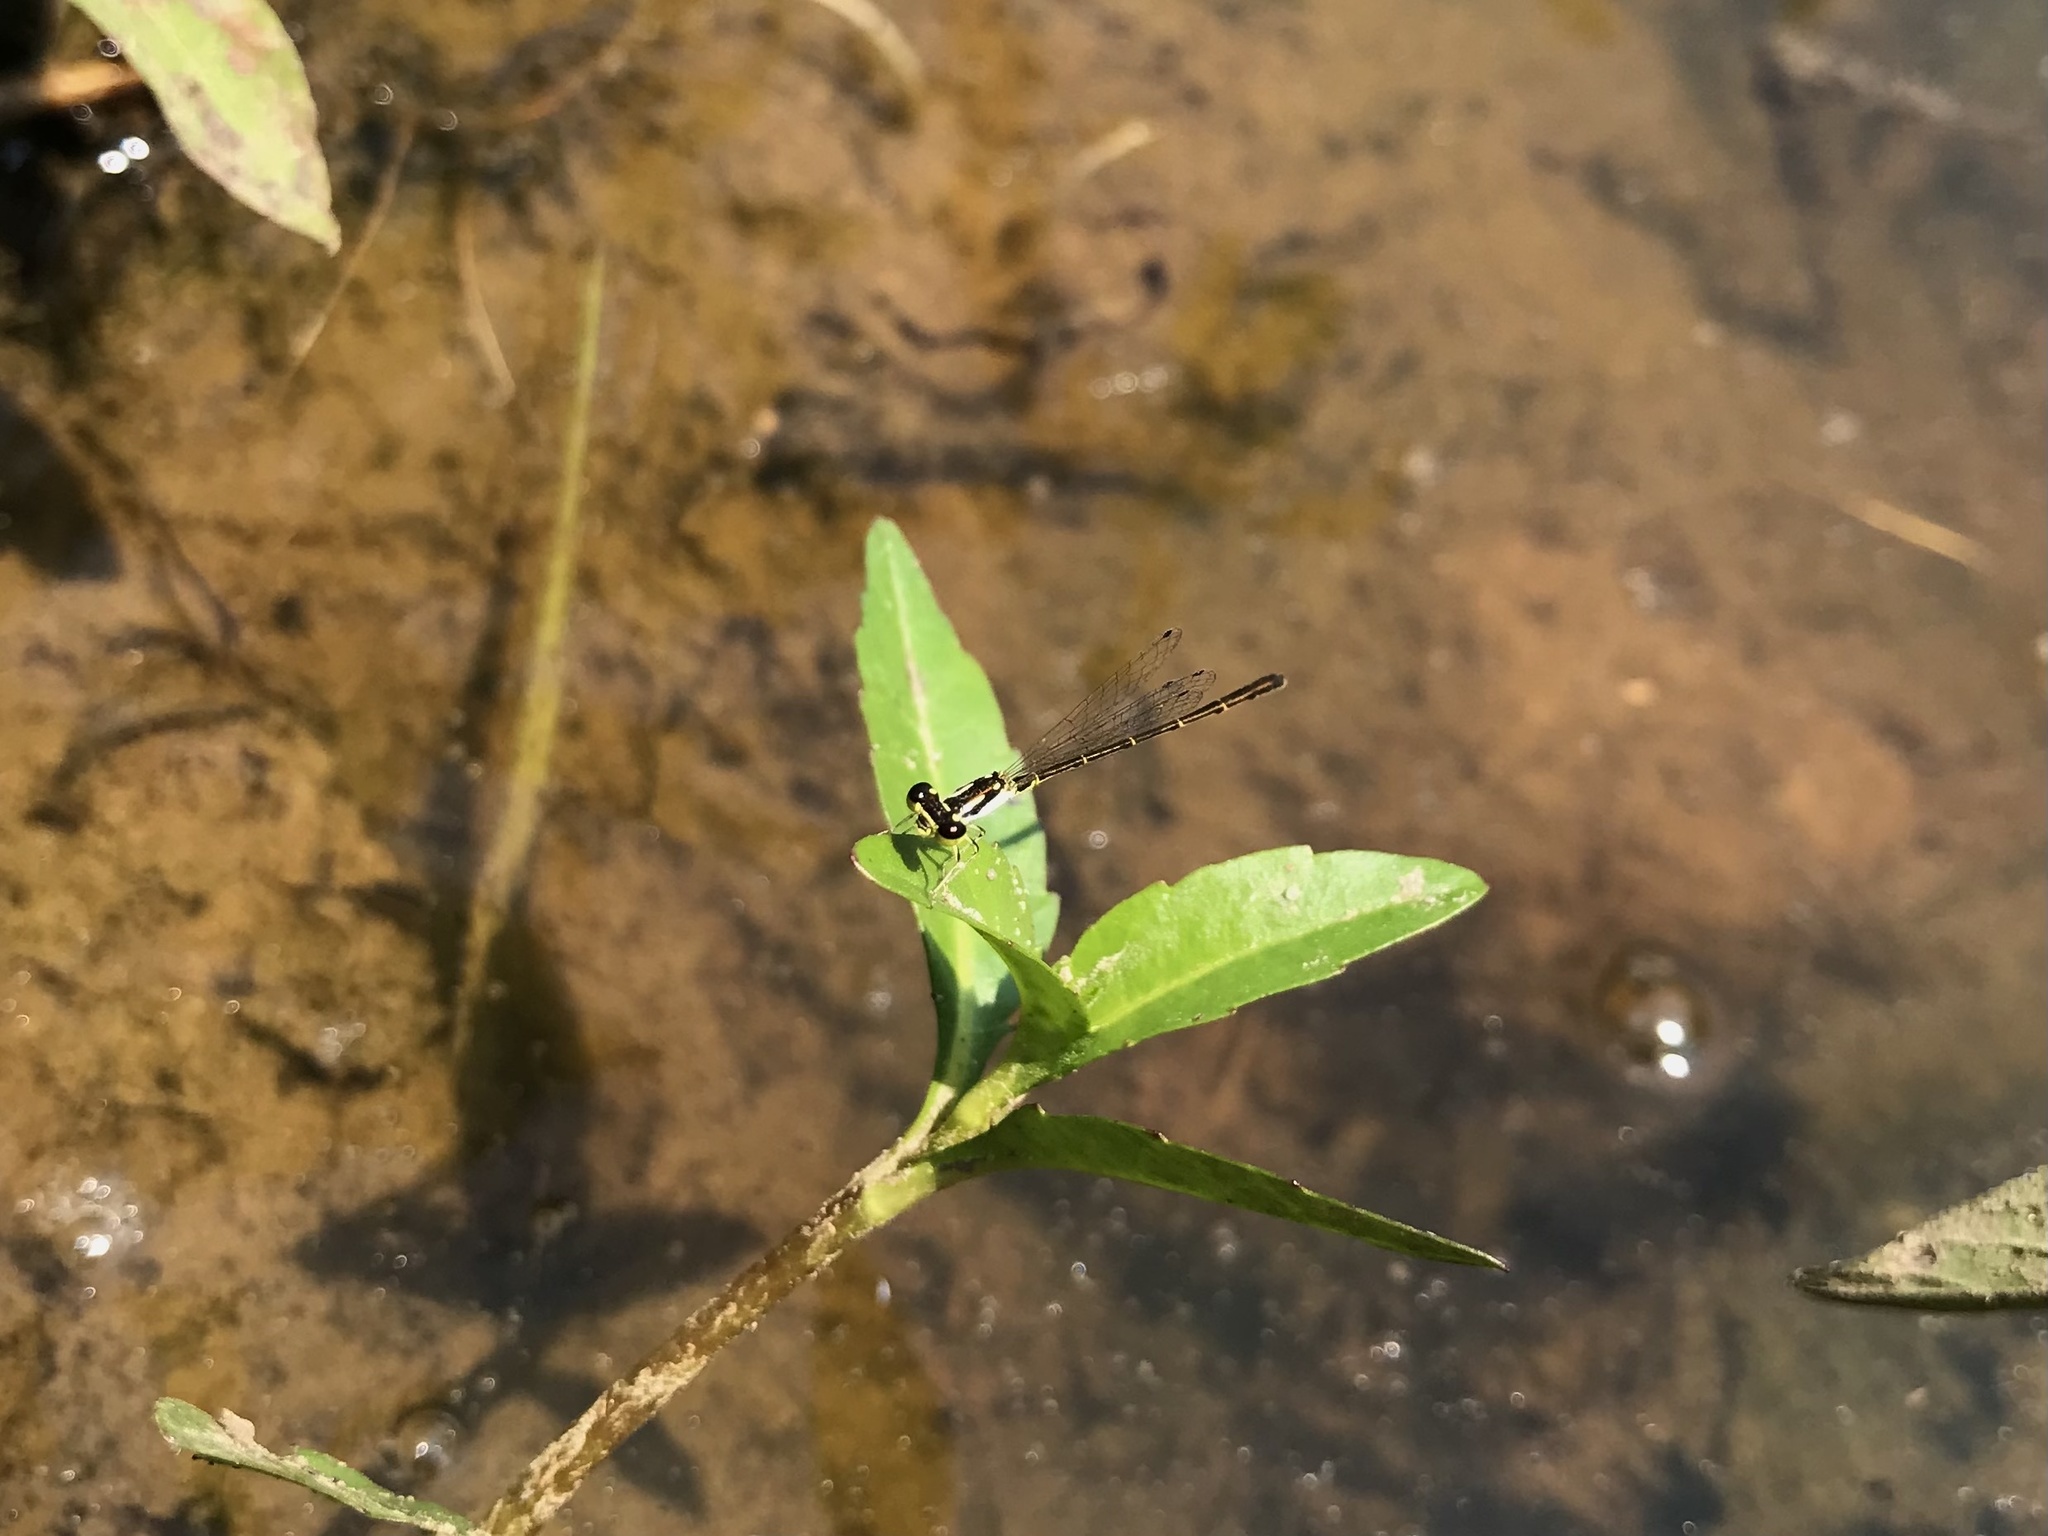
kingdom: Animalia
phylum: Arthropoda
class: Insecta
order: Odonata
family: Coenagrionidae
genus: Ischnura
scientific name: Ischnura posita
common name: Fragile forktail
